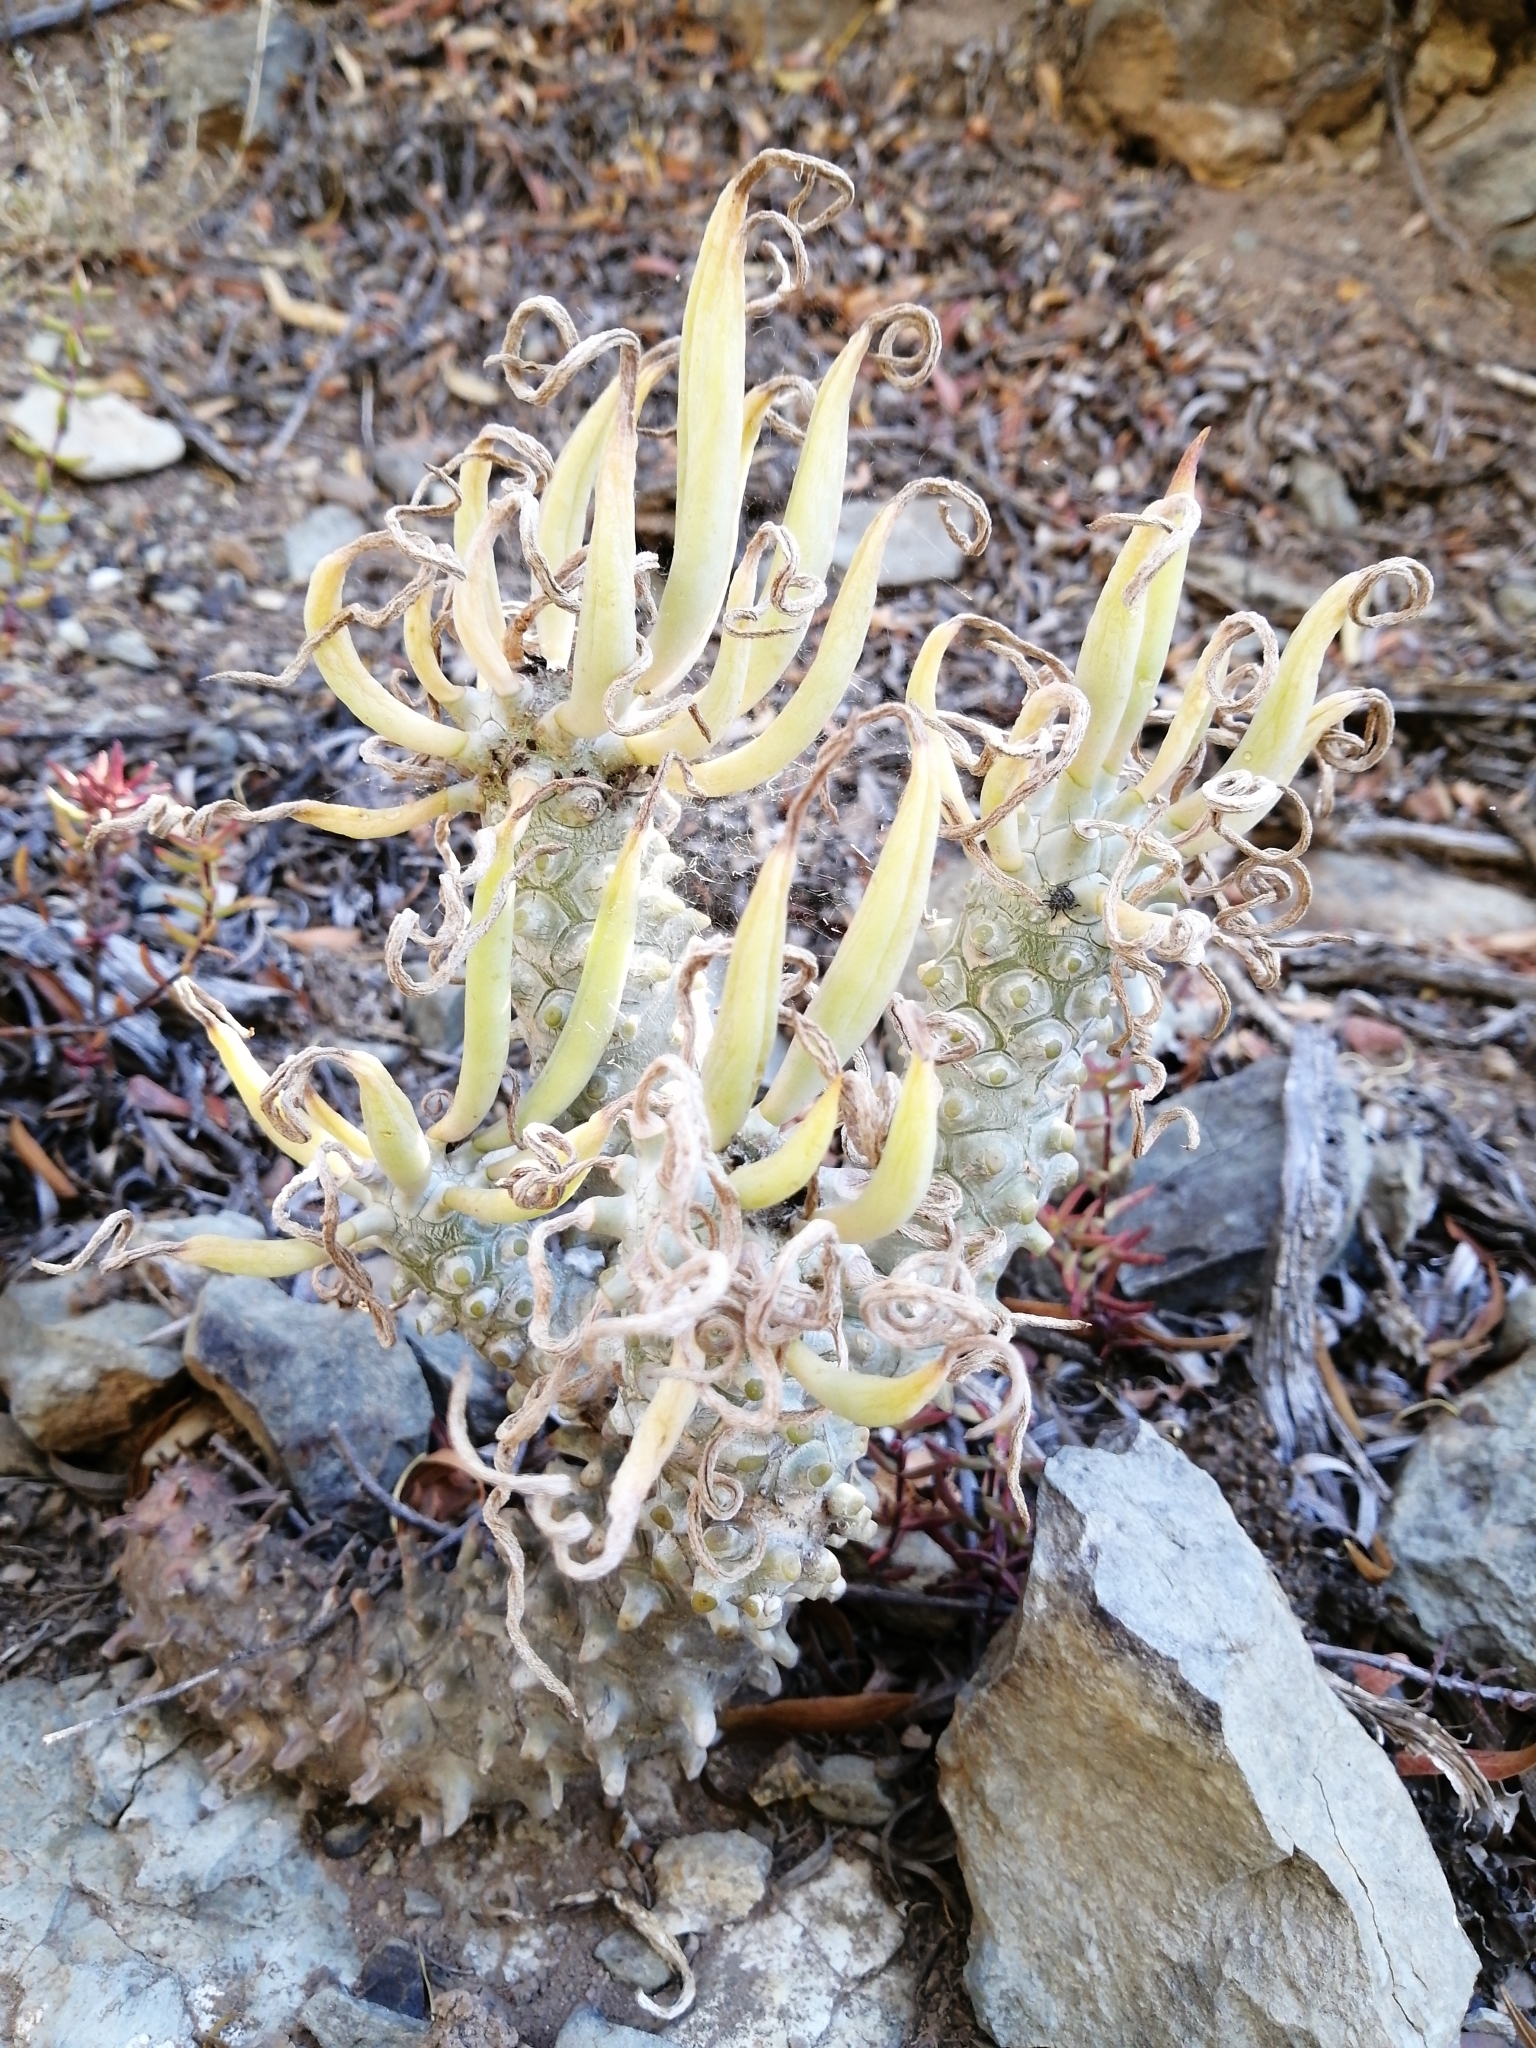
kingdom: Plantae
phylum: Tracheophyta
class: Magnoliopsida
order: Saxifragales
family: Crassulaceae
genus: Tylecodon
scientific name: Tylecodon wallichii
